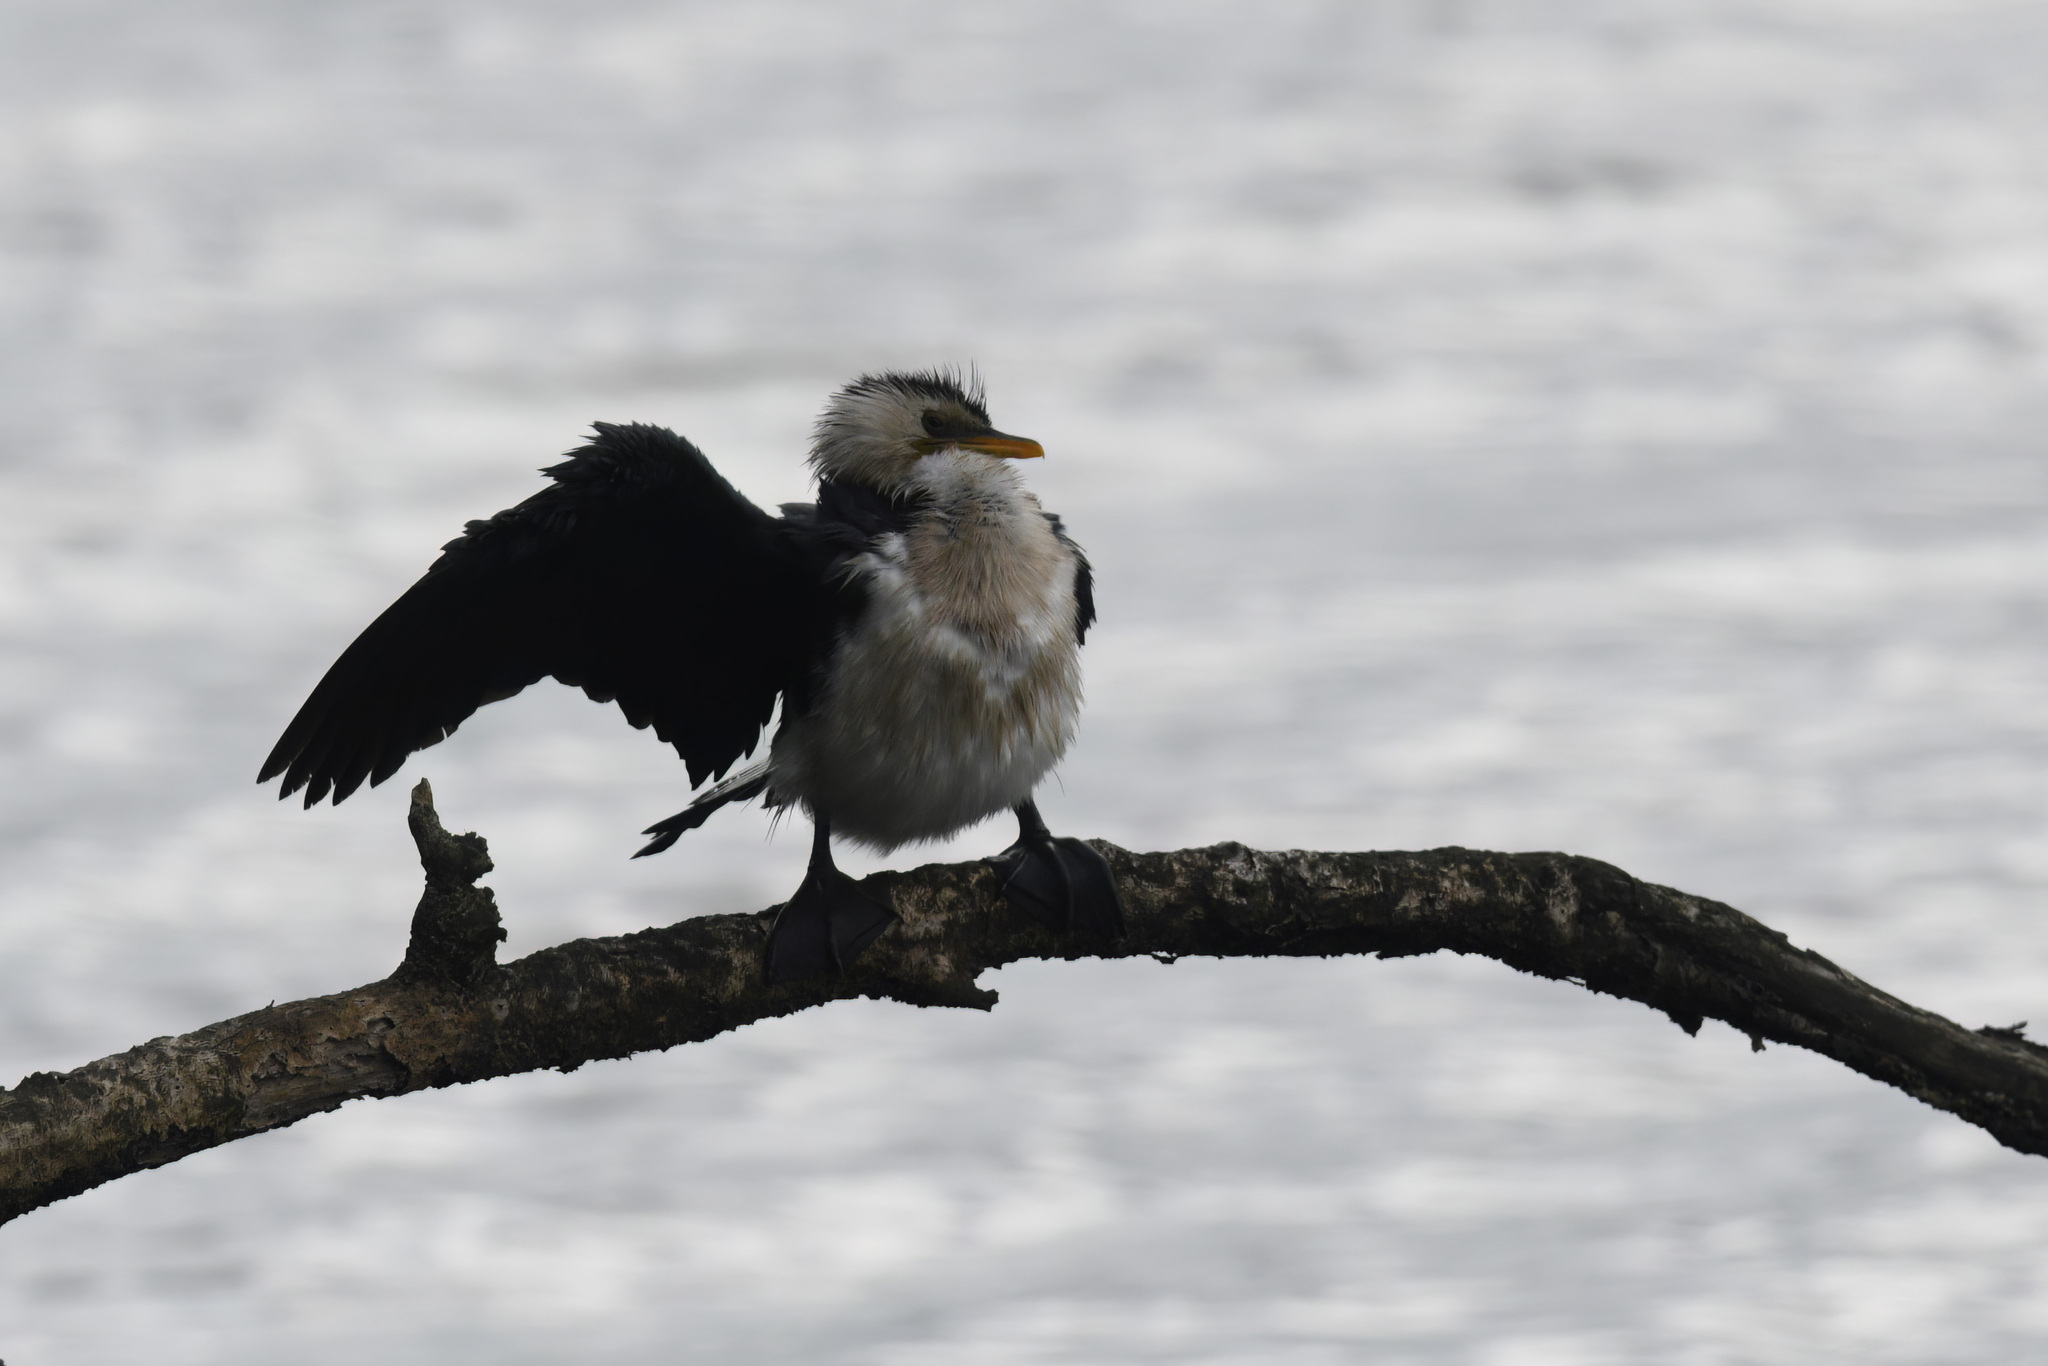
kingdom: Animalia
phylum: Chordata
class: Aves
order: Suliformes
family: Phalacrocoracidae
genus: Microcarbo
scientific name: Microcarbo melanoleucos
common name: Little pied cormorant
